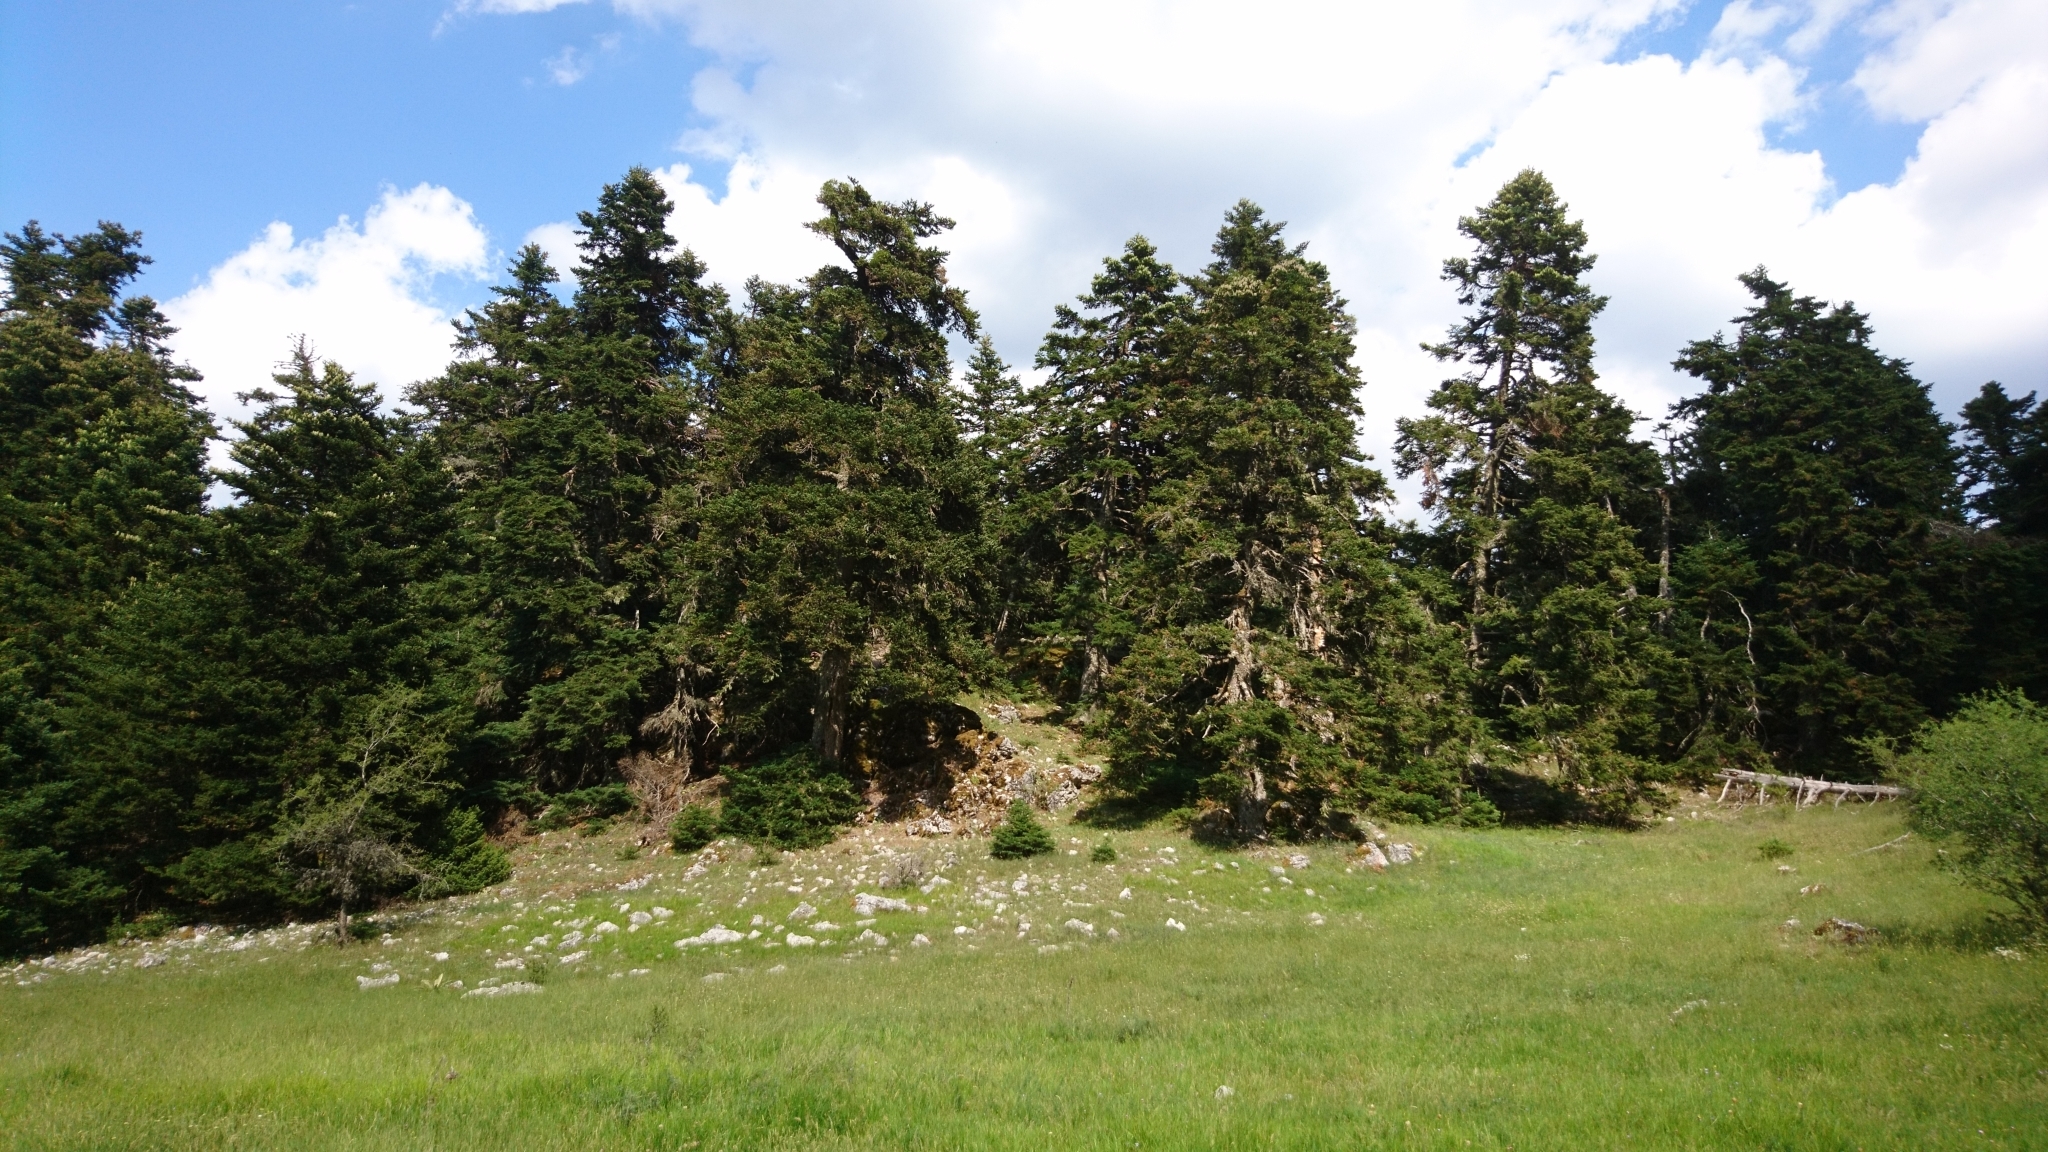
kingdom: Plantae
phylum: Tracheophyta
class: Pinopsida
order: Pinales
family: Pinaceae
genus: Abies
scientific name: Abies cephalonica
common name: Greek fir
